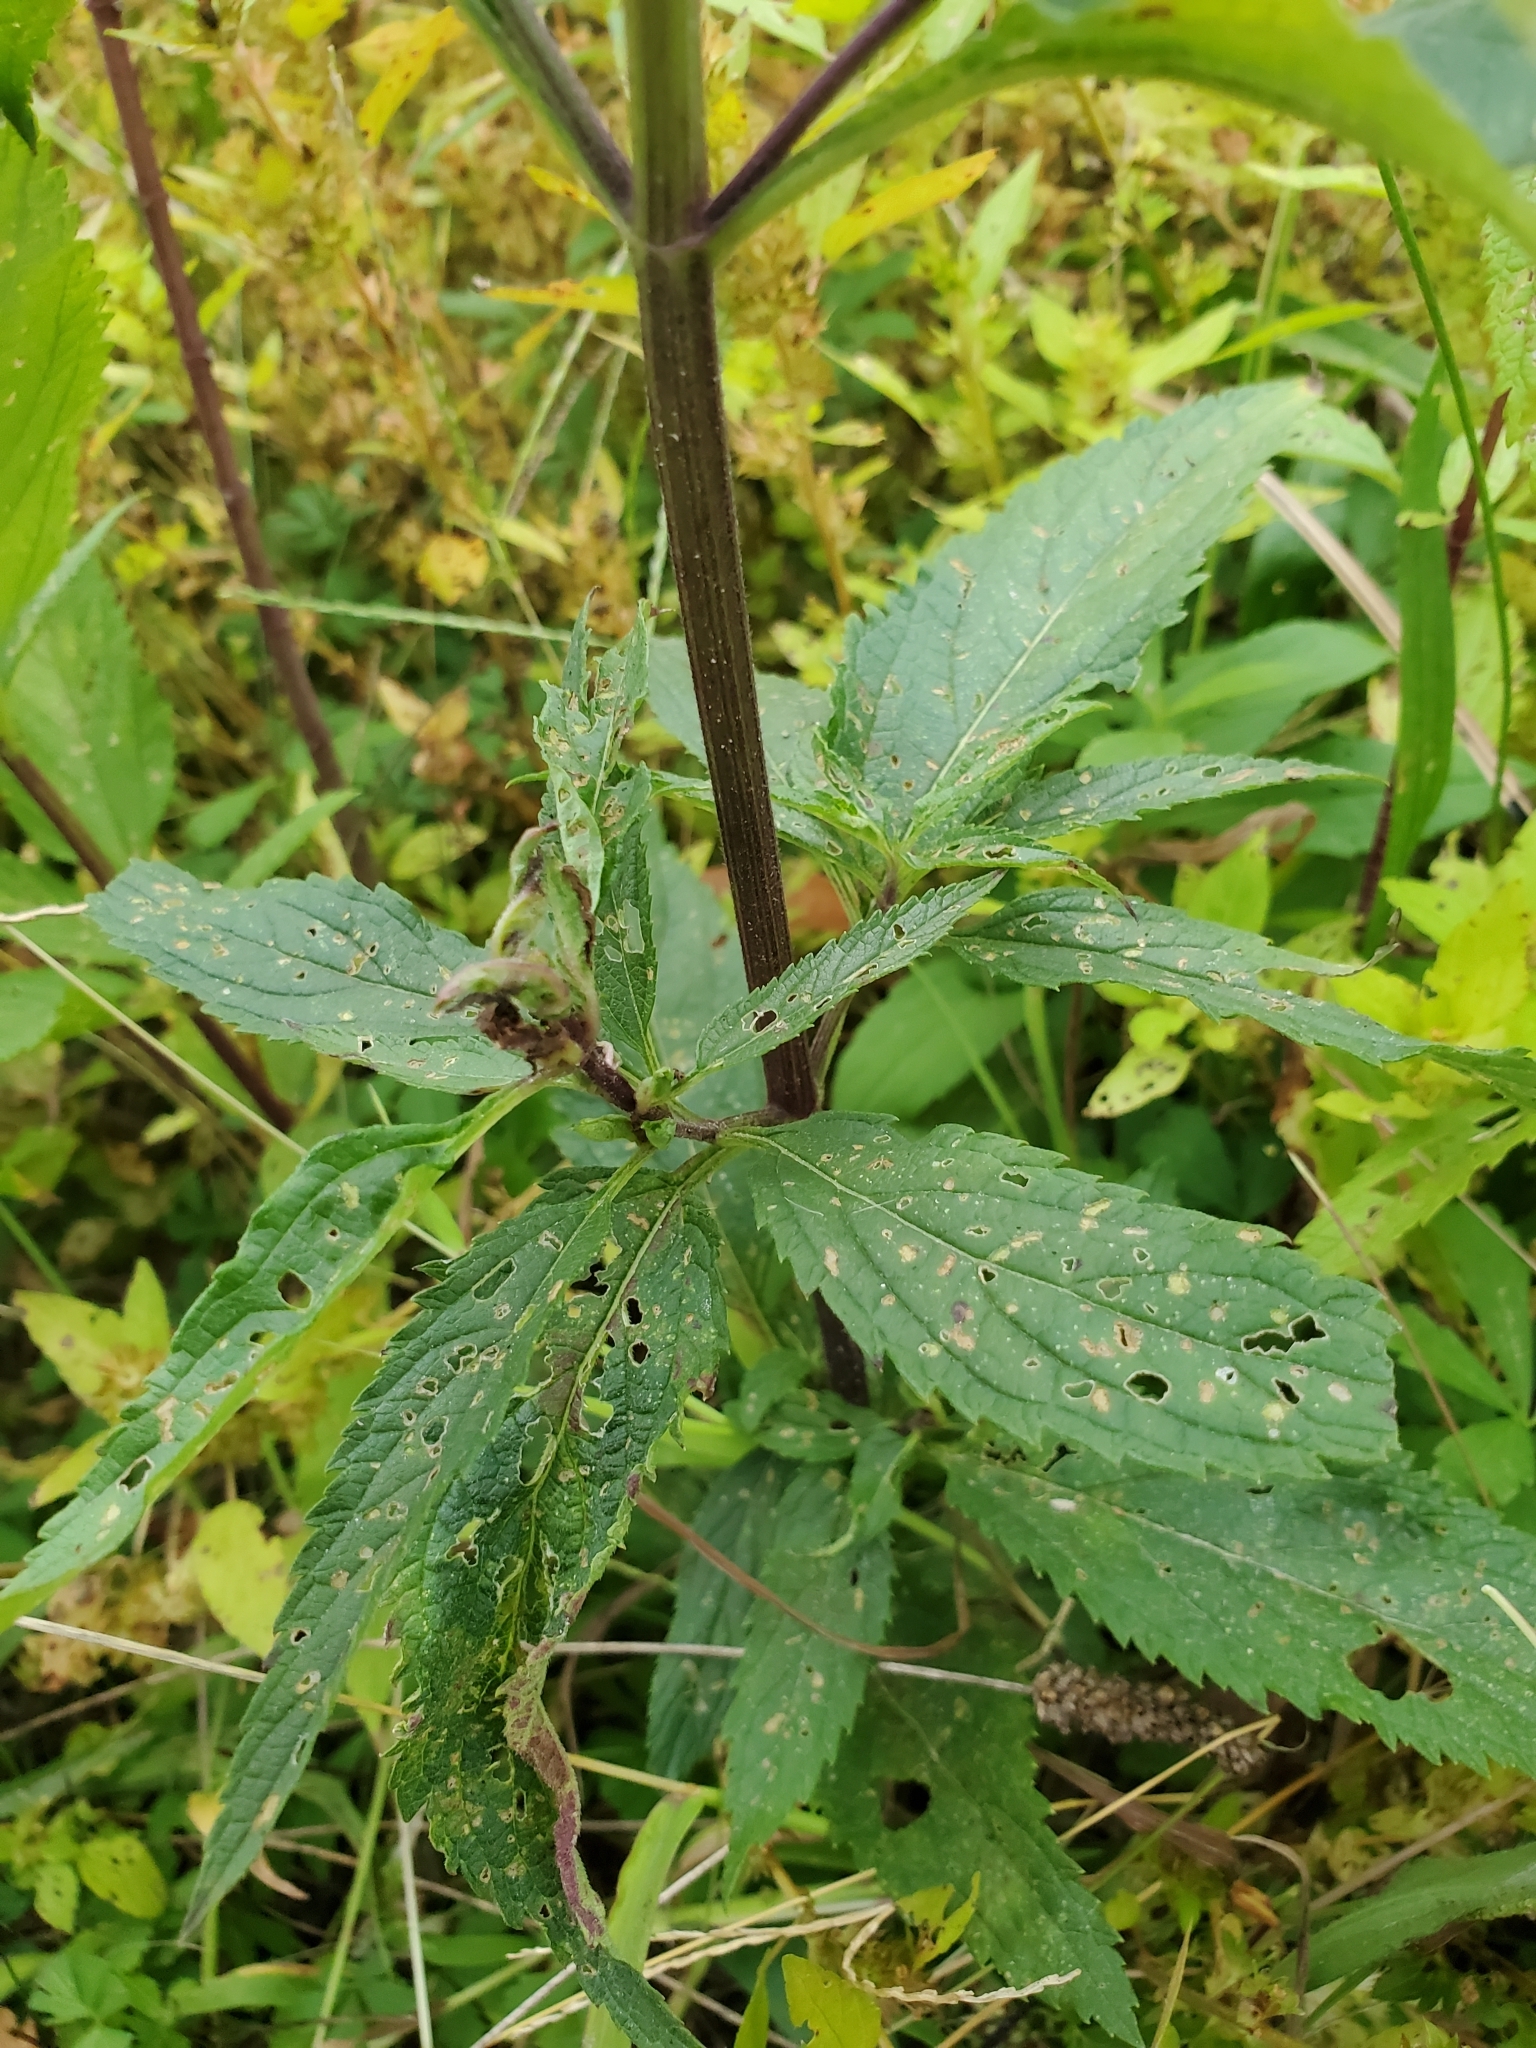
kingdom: Plantae
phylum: Tracheophyta
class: Magnoliopsida
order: Lamiales
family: Verbenaceae
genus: Verbena
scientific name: Verbena hastata
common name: American blue vervain
